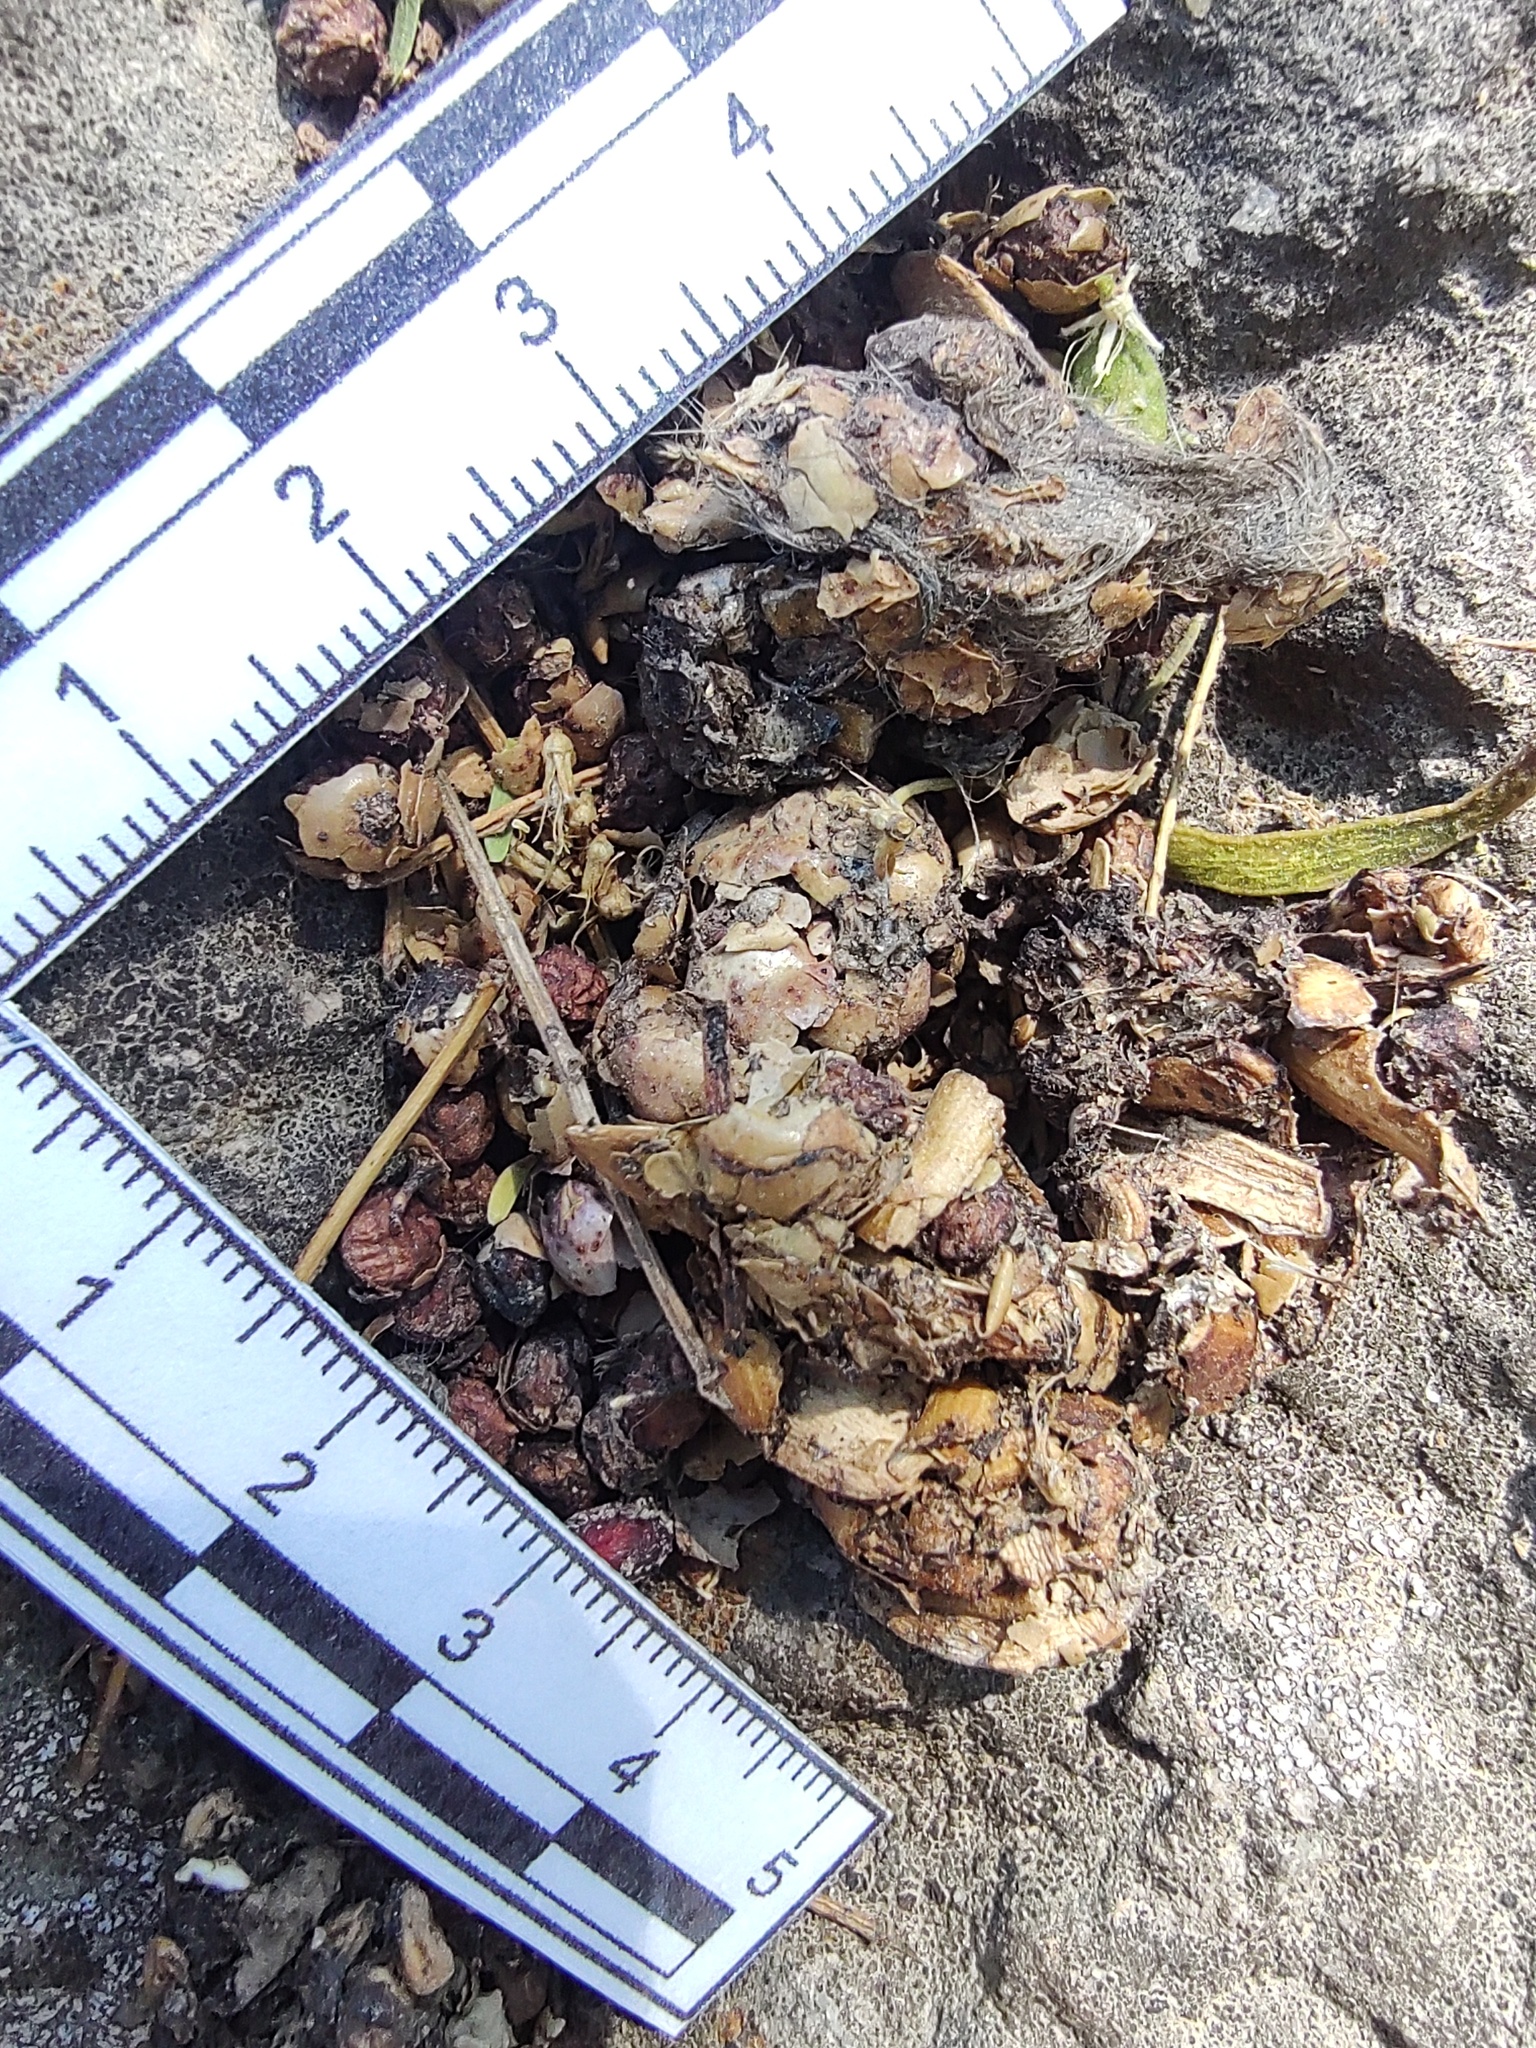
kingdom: Animalia
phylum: Chordata
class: Mammalia
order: Carnivora
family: Procyonidae
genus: Bassariscus
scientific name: Bassariscus astutus
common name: Ringtail
